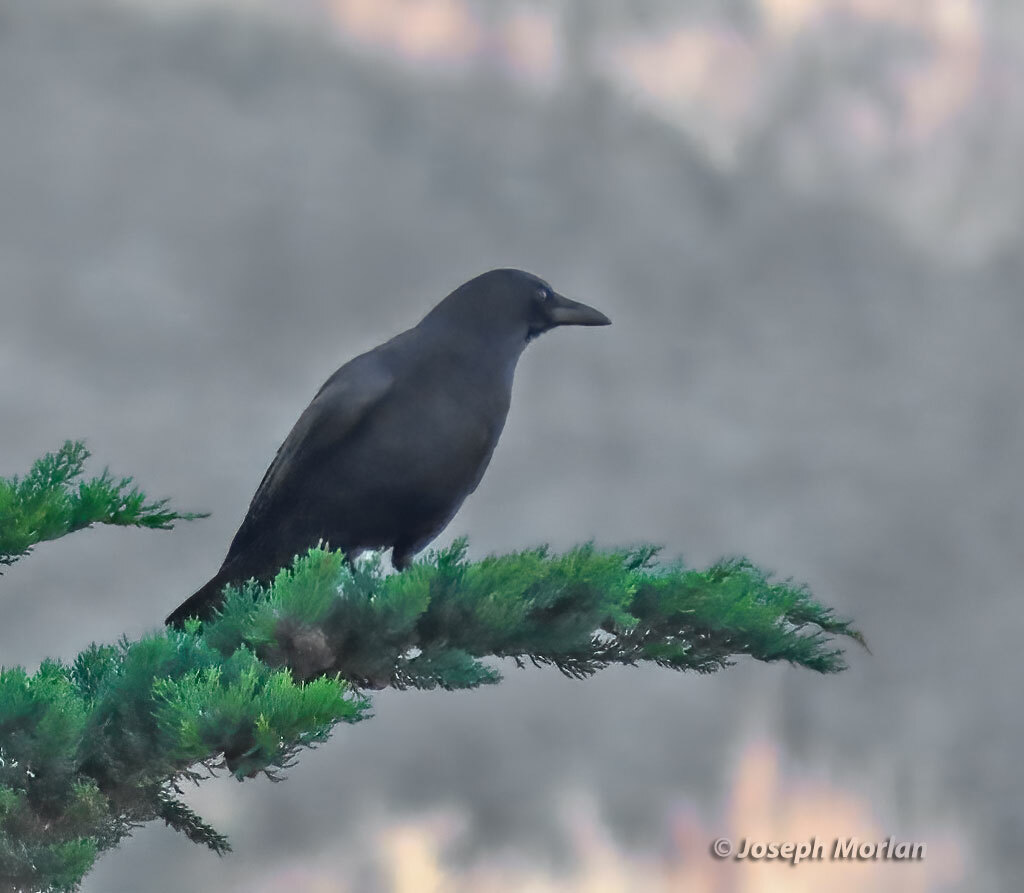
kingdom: Animalia
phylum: Chordata
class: Aves
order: Passeriformes
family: Corvidae
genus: Corvus
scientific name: Corvus brachyrhynchos
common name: American crow
